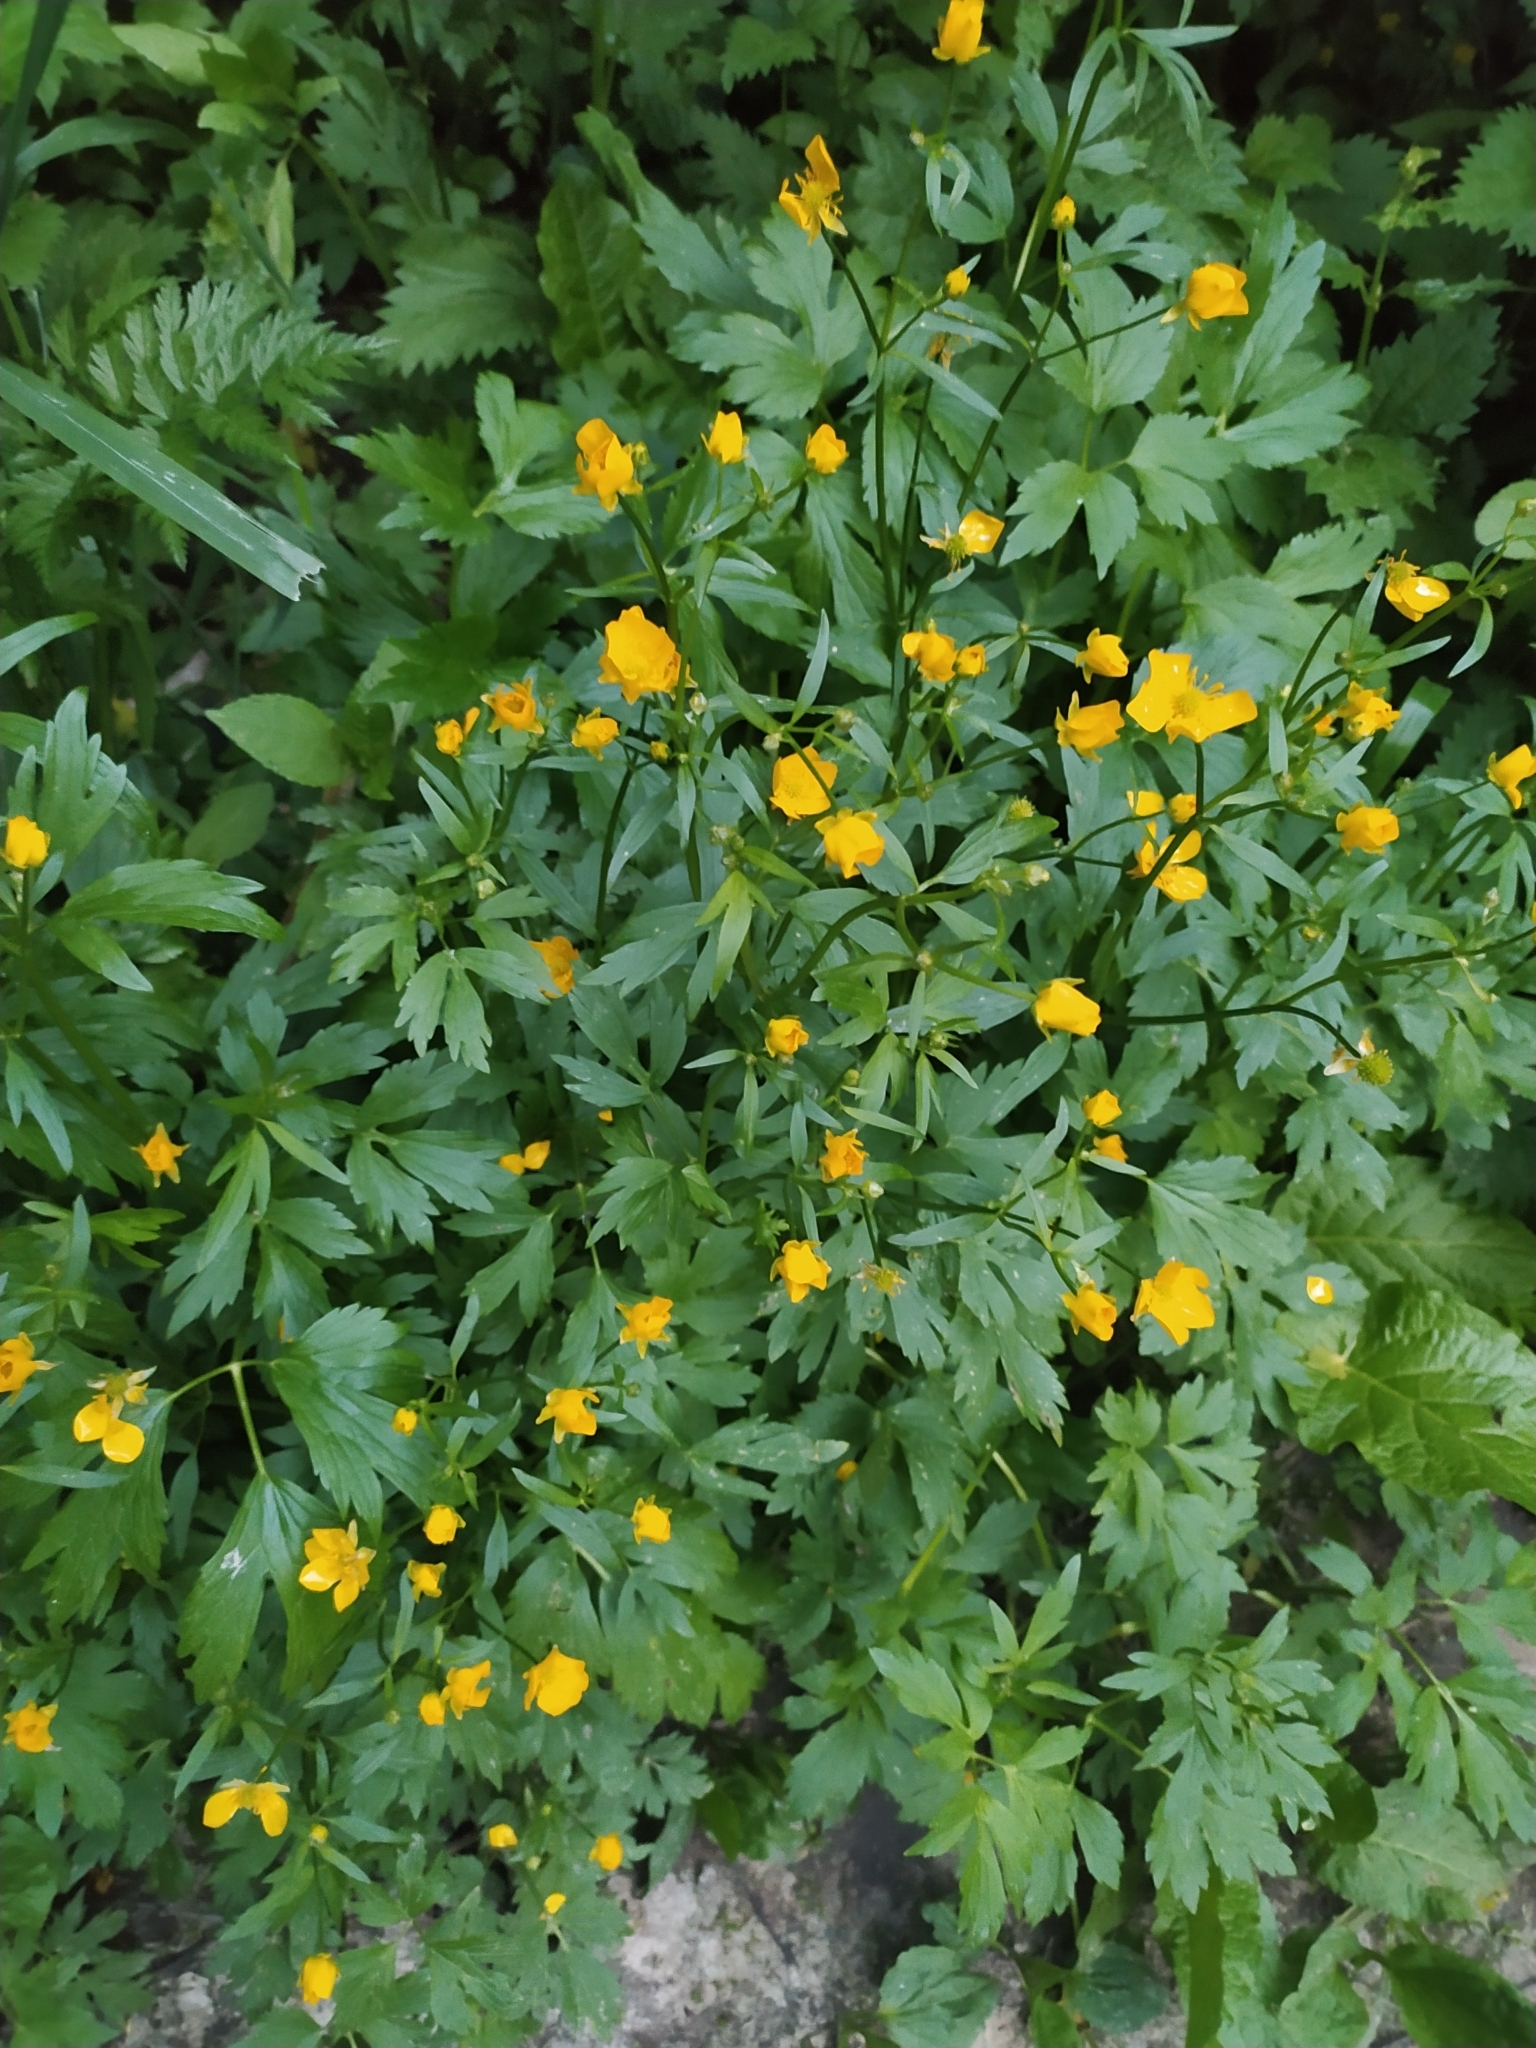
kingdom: Plantae
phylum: Tracheophyta
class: Magnoliopsida
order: Ranunculales
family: Ranunculaceae
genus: Ranunculus
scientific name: Ranunculus repens
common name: Creeping buttercup
